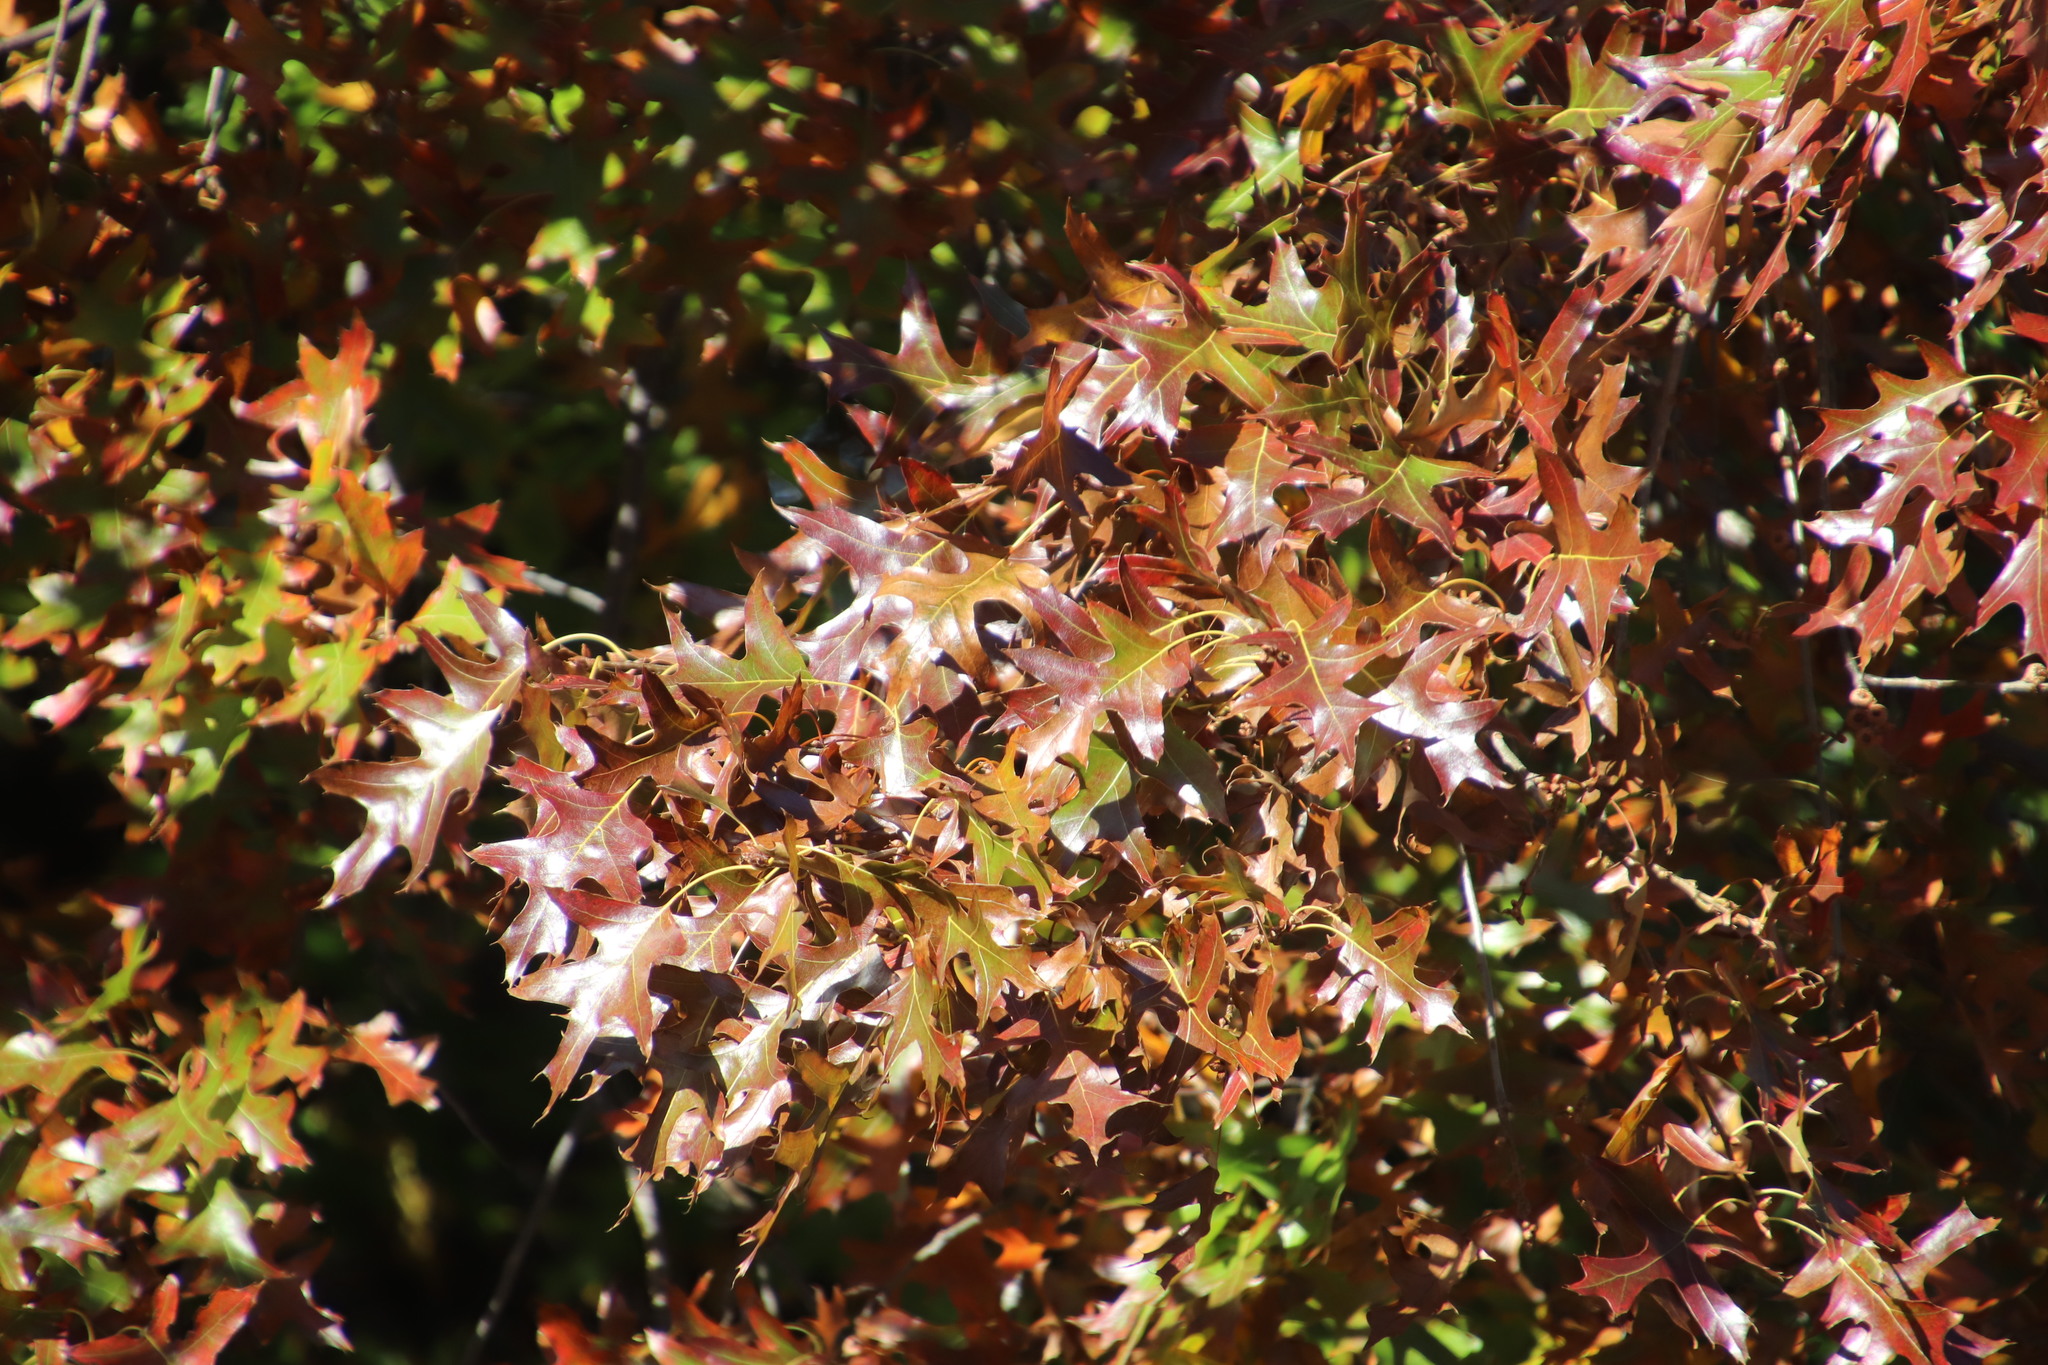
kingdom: Plantae
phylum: Tracheophyta
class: Magnoliopsida
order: Fagales
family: Fagaceae
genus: Quercus
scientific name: Quercus palustris
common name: Pin oak
